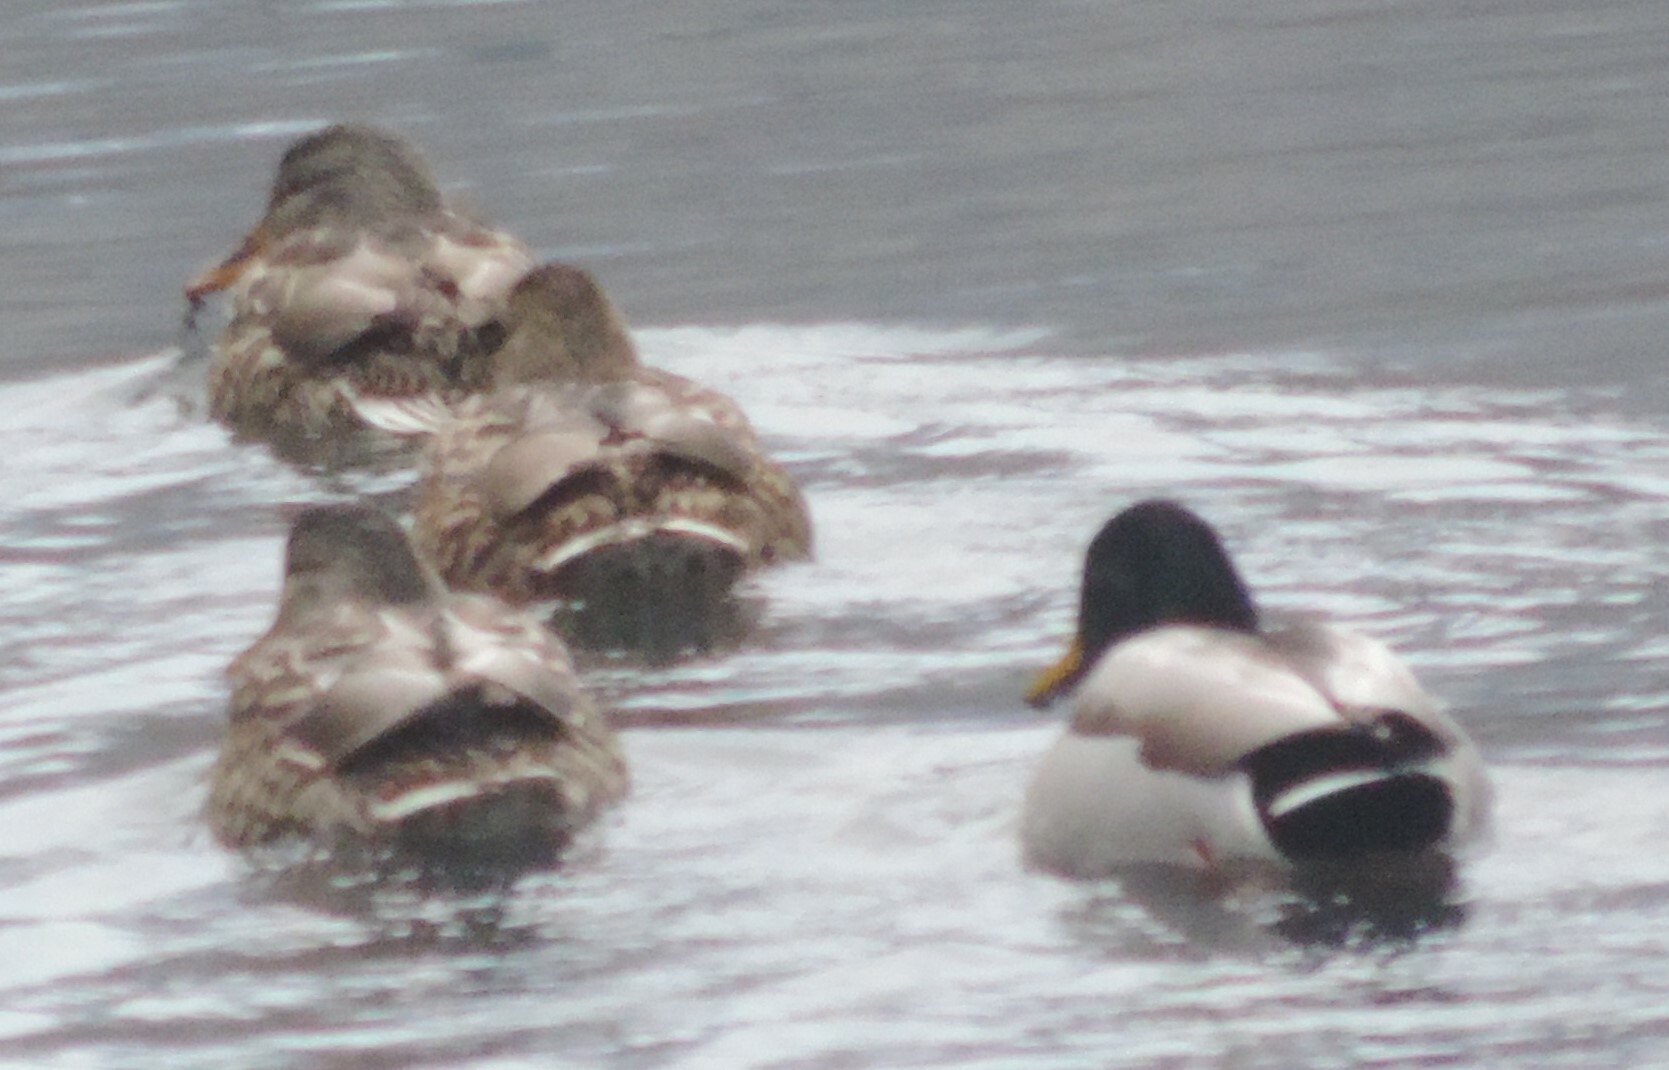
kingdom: Animalia
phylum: Chordata
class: Aves
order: Anseriformes
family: Anatidae
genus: Anas
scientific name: Anas platyrhynchos
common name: Mallard
